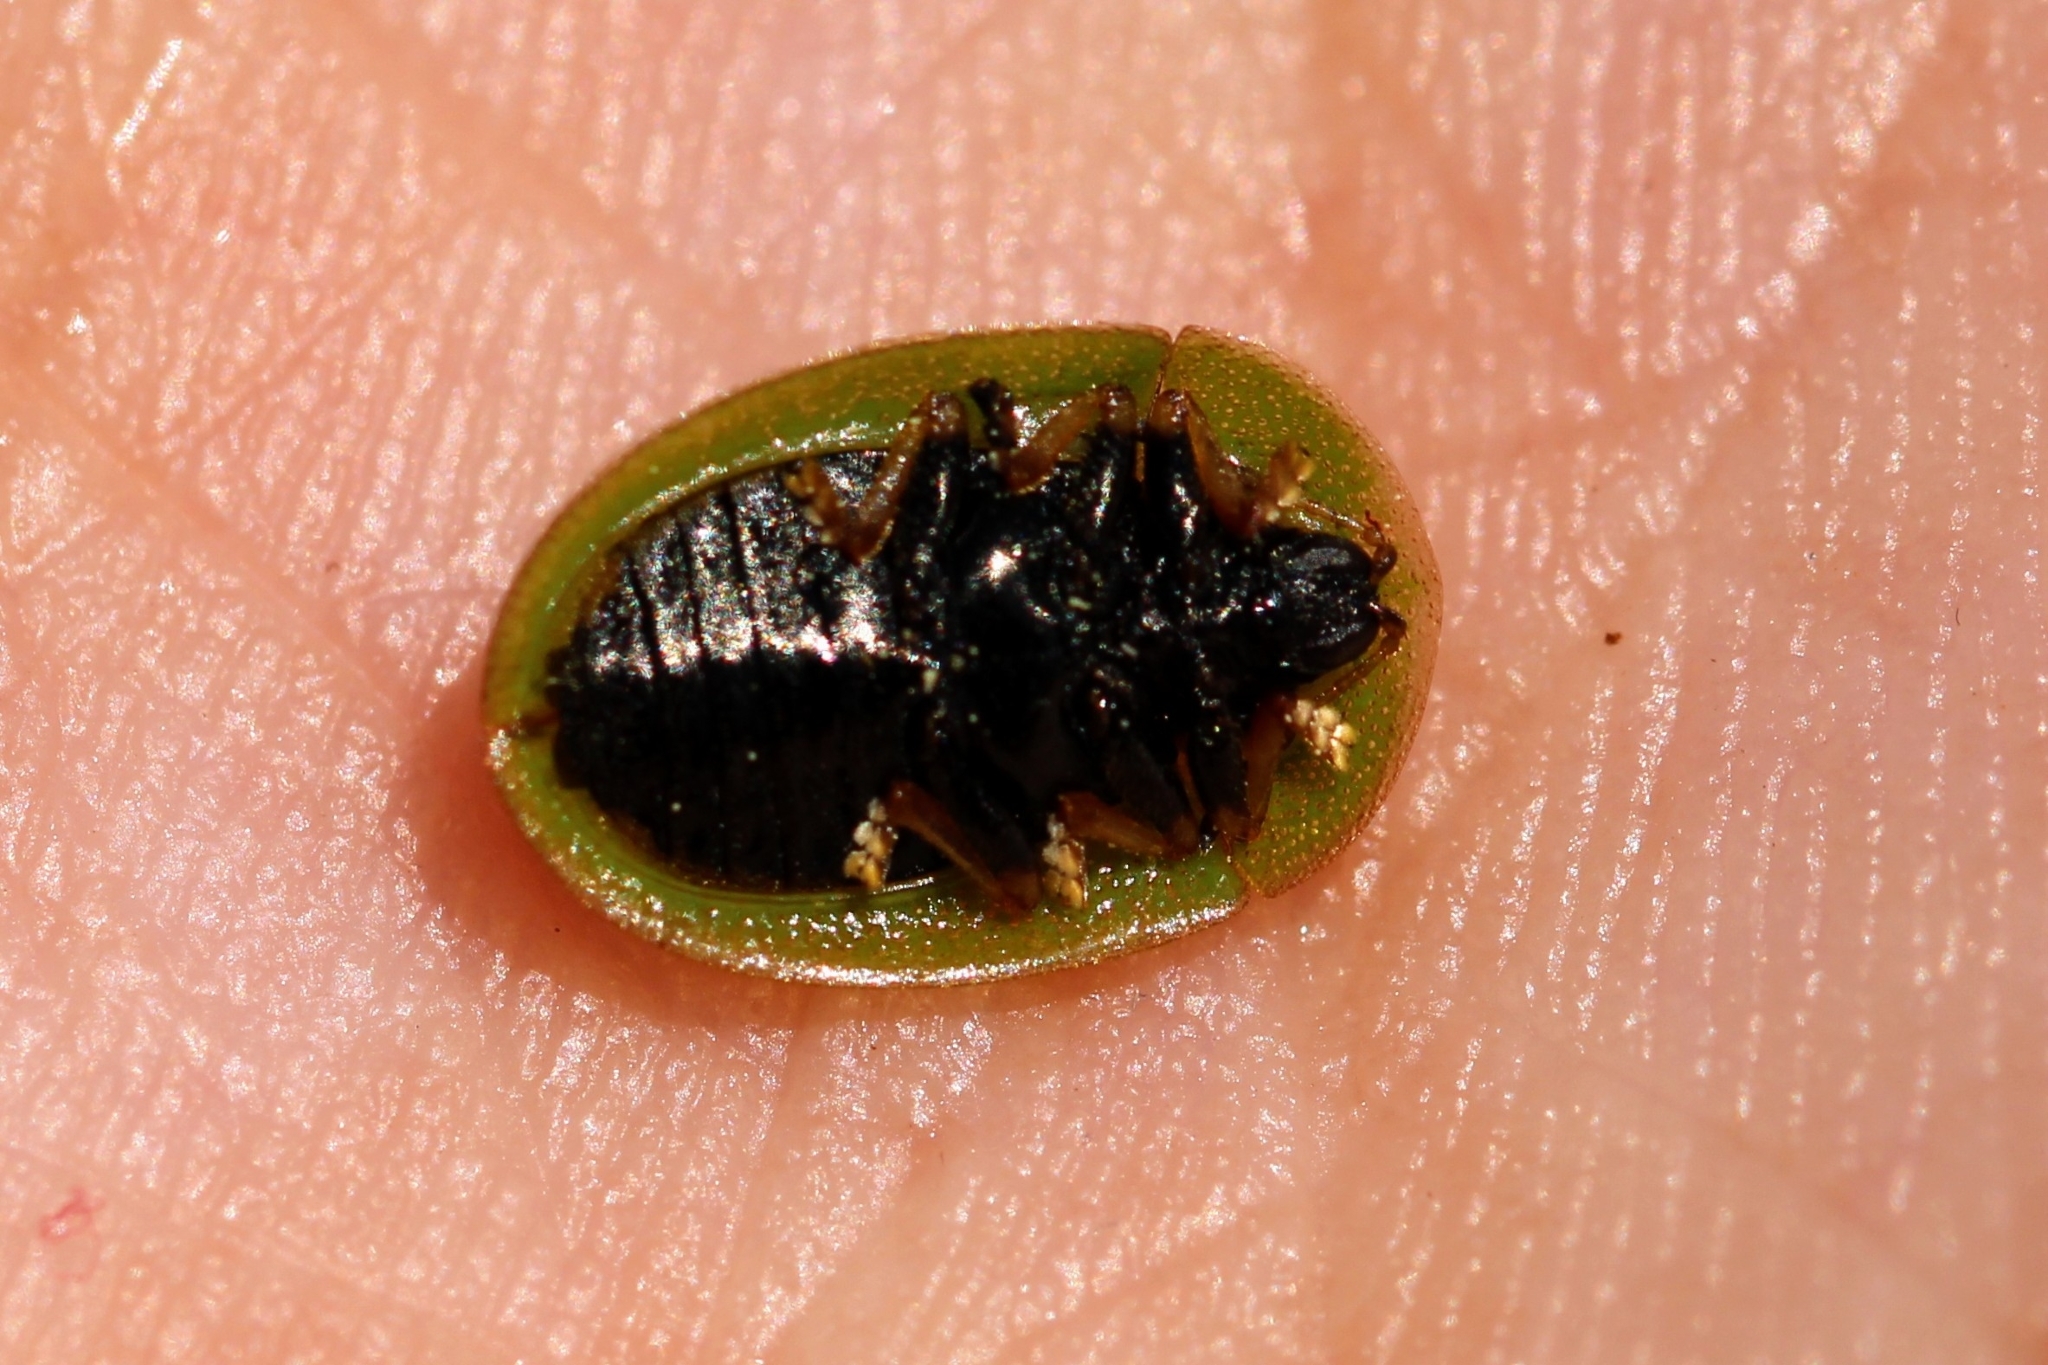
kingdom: Animalia
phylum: Arthropoda
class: Insecta
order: Coleoptera
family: Chrysomelidae
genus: Cassida
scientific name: Cassida rubiginosa
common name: Thistle tortoise beetle
